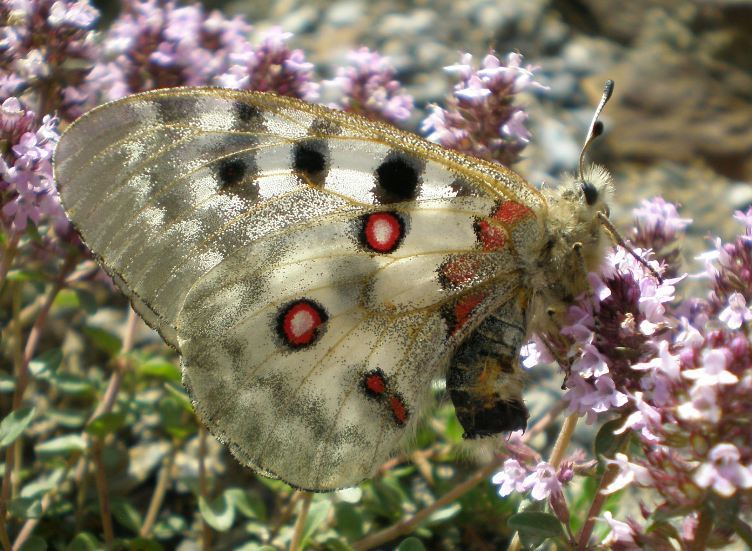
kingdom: Animalia
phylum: Arthropoda
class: Insecta
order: Lepidoptera
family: Papilionidae
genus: Parnassius
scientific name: Parnassius apollo
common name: Apollo
